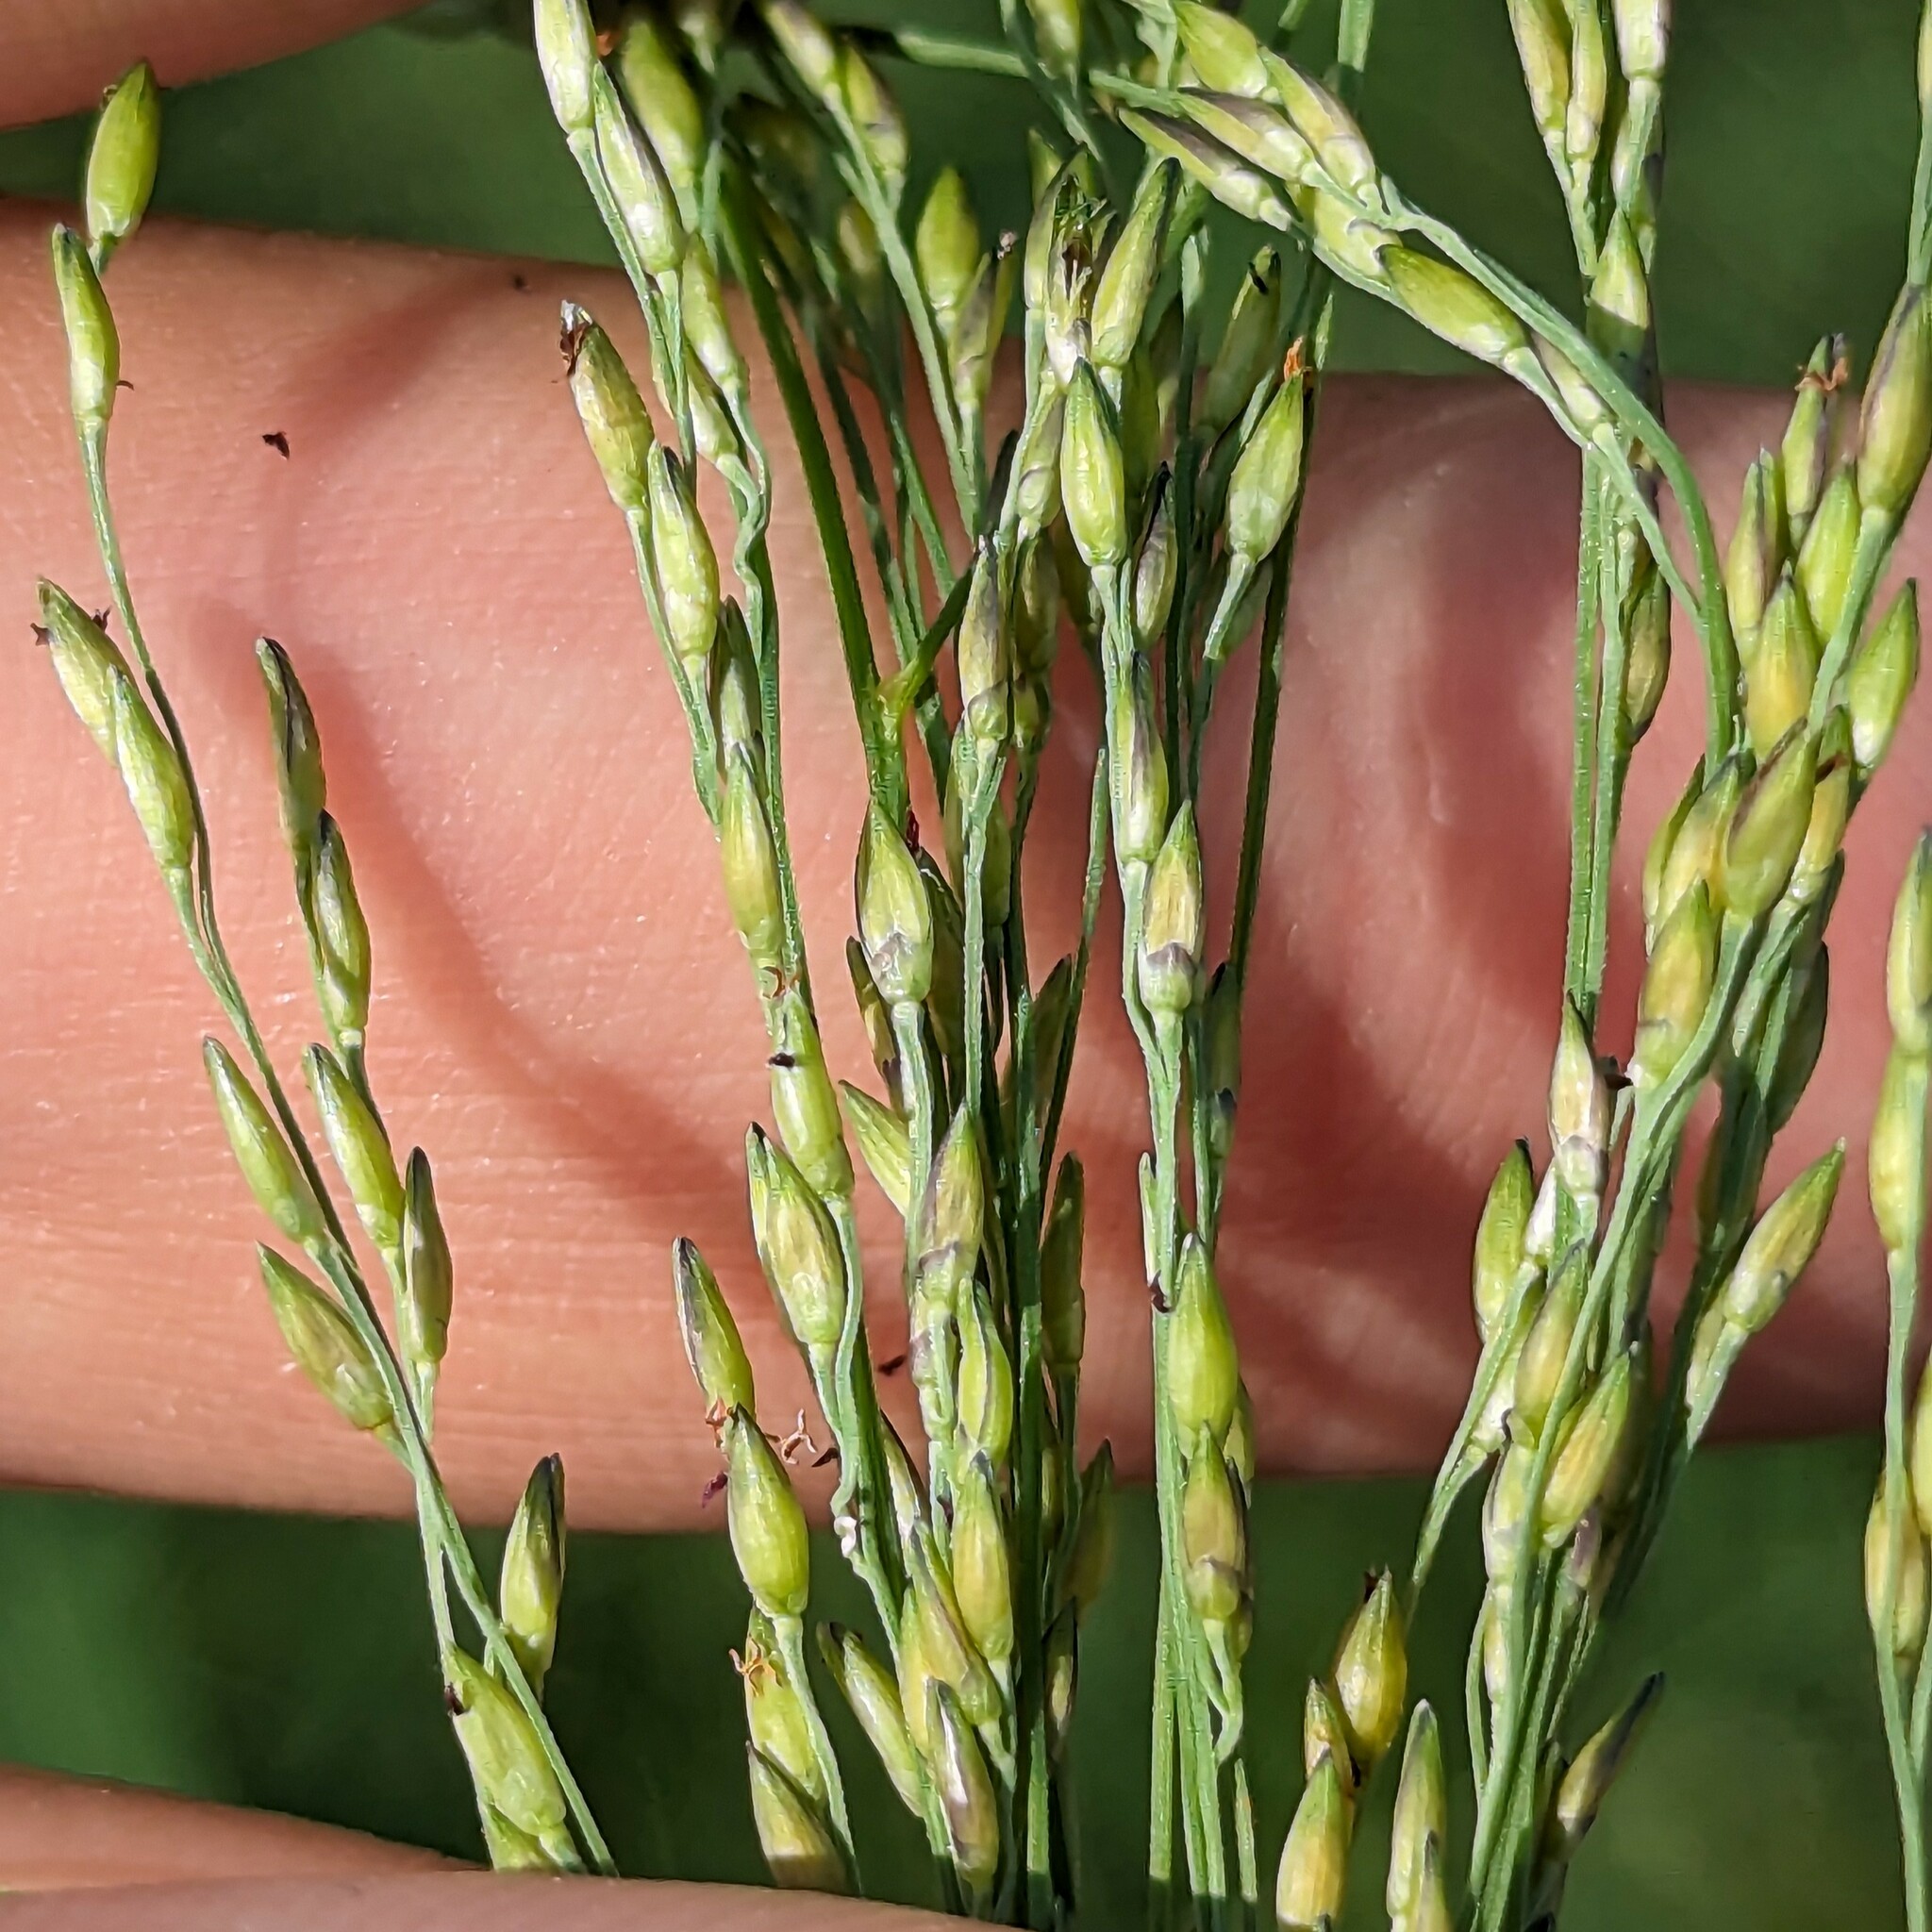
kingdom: Plantae
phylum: Tracheophyta
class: Liliopsida
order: Poales
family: Poaceae
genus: Panicum
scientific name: Panicum dichotomiflorum
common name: Autumn millet
